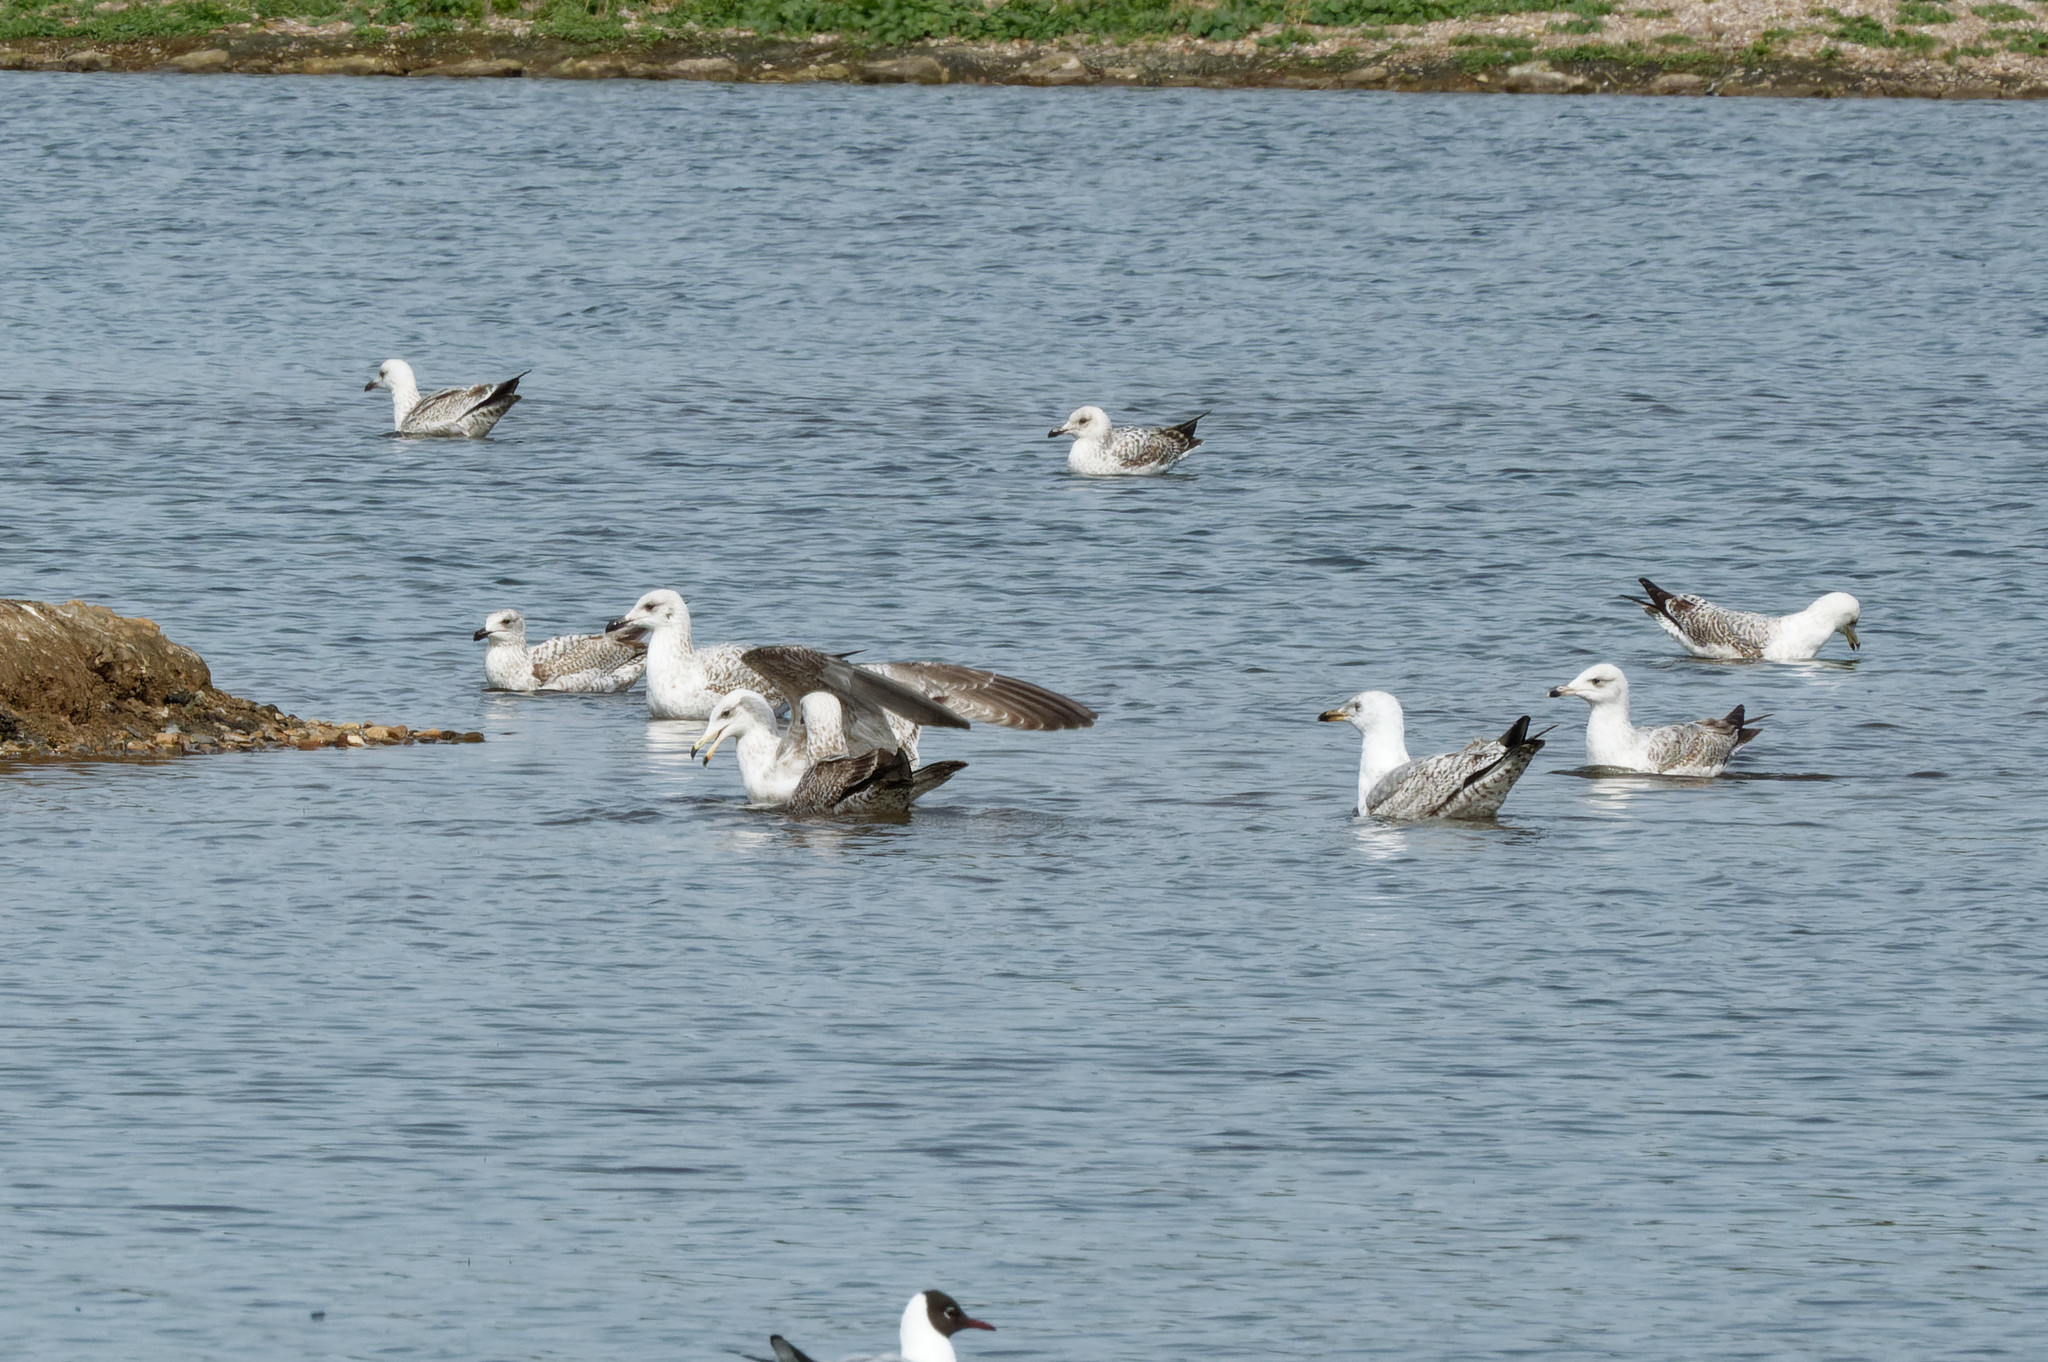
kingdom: Animalia
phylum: Chordata
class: Aves
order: Charadriiformes
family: Laridae
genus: Larus
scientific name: Larus argentatus
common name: Herring gull
